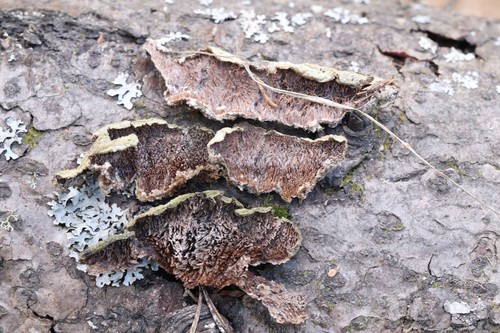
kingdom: Fungi
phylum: Basidiomycota
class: Agaricomycetes
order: Hymenochaetales
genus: Trichaptum
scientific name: Trichaptum fuscoviolaceum
